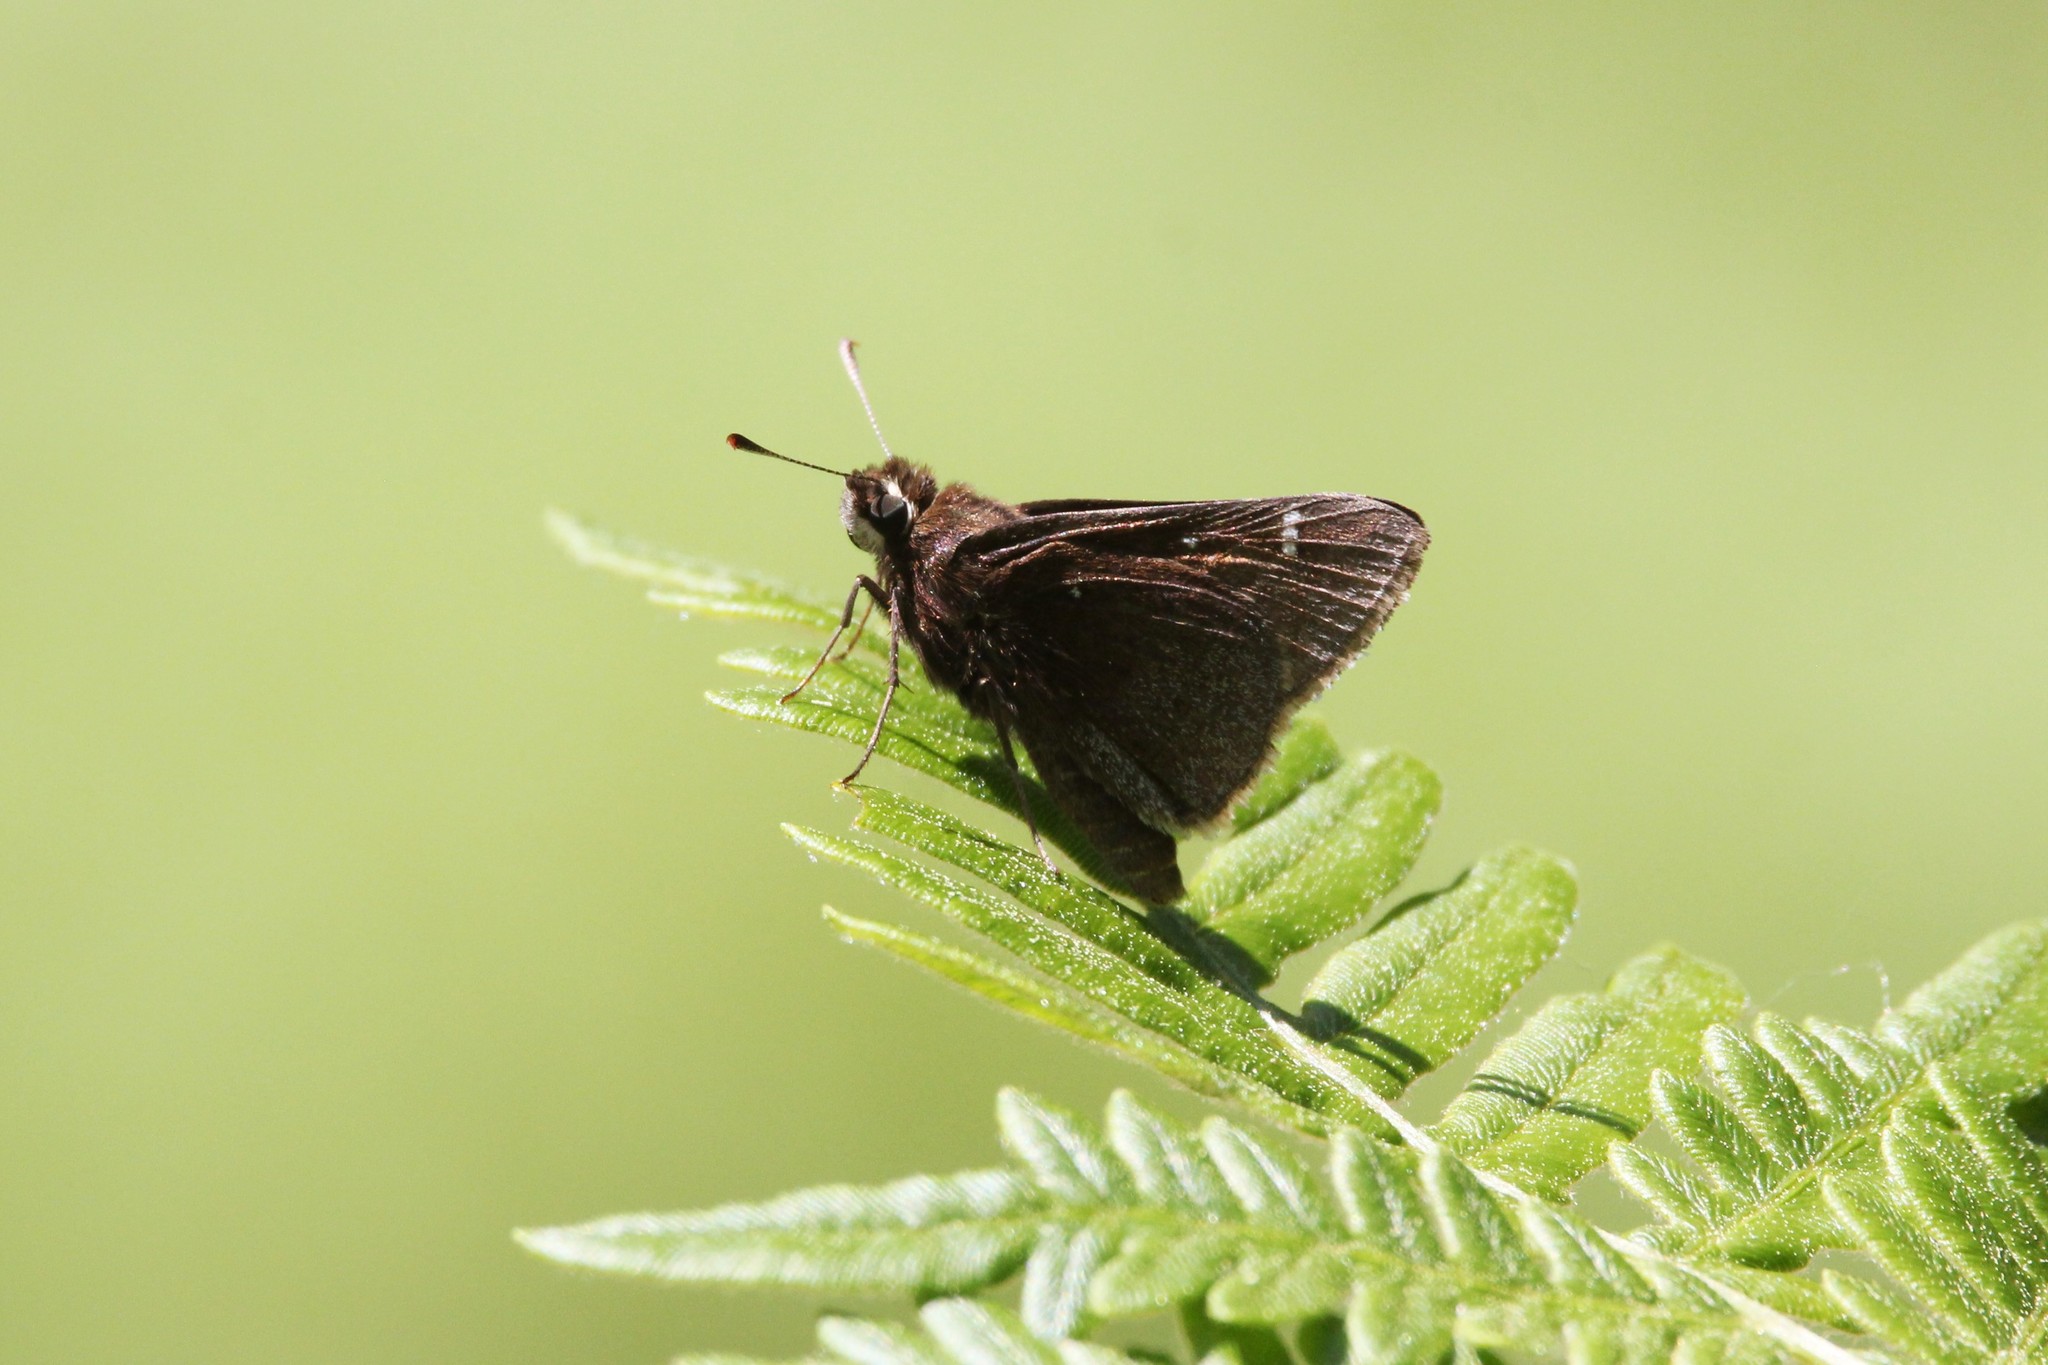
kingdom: Animalia
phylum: Arthropoda
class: Insecta
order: Lepidoptera
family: Hesperiidae
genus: Atrytonopsis
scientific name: Atrytonopsis hianna
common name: Dusted skipper
